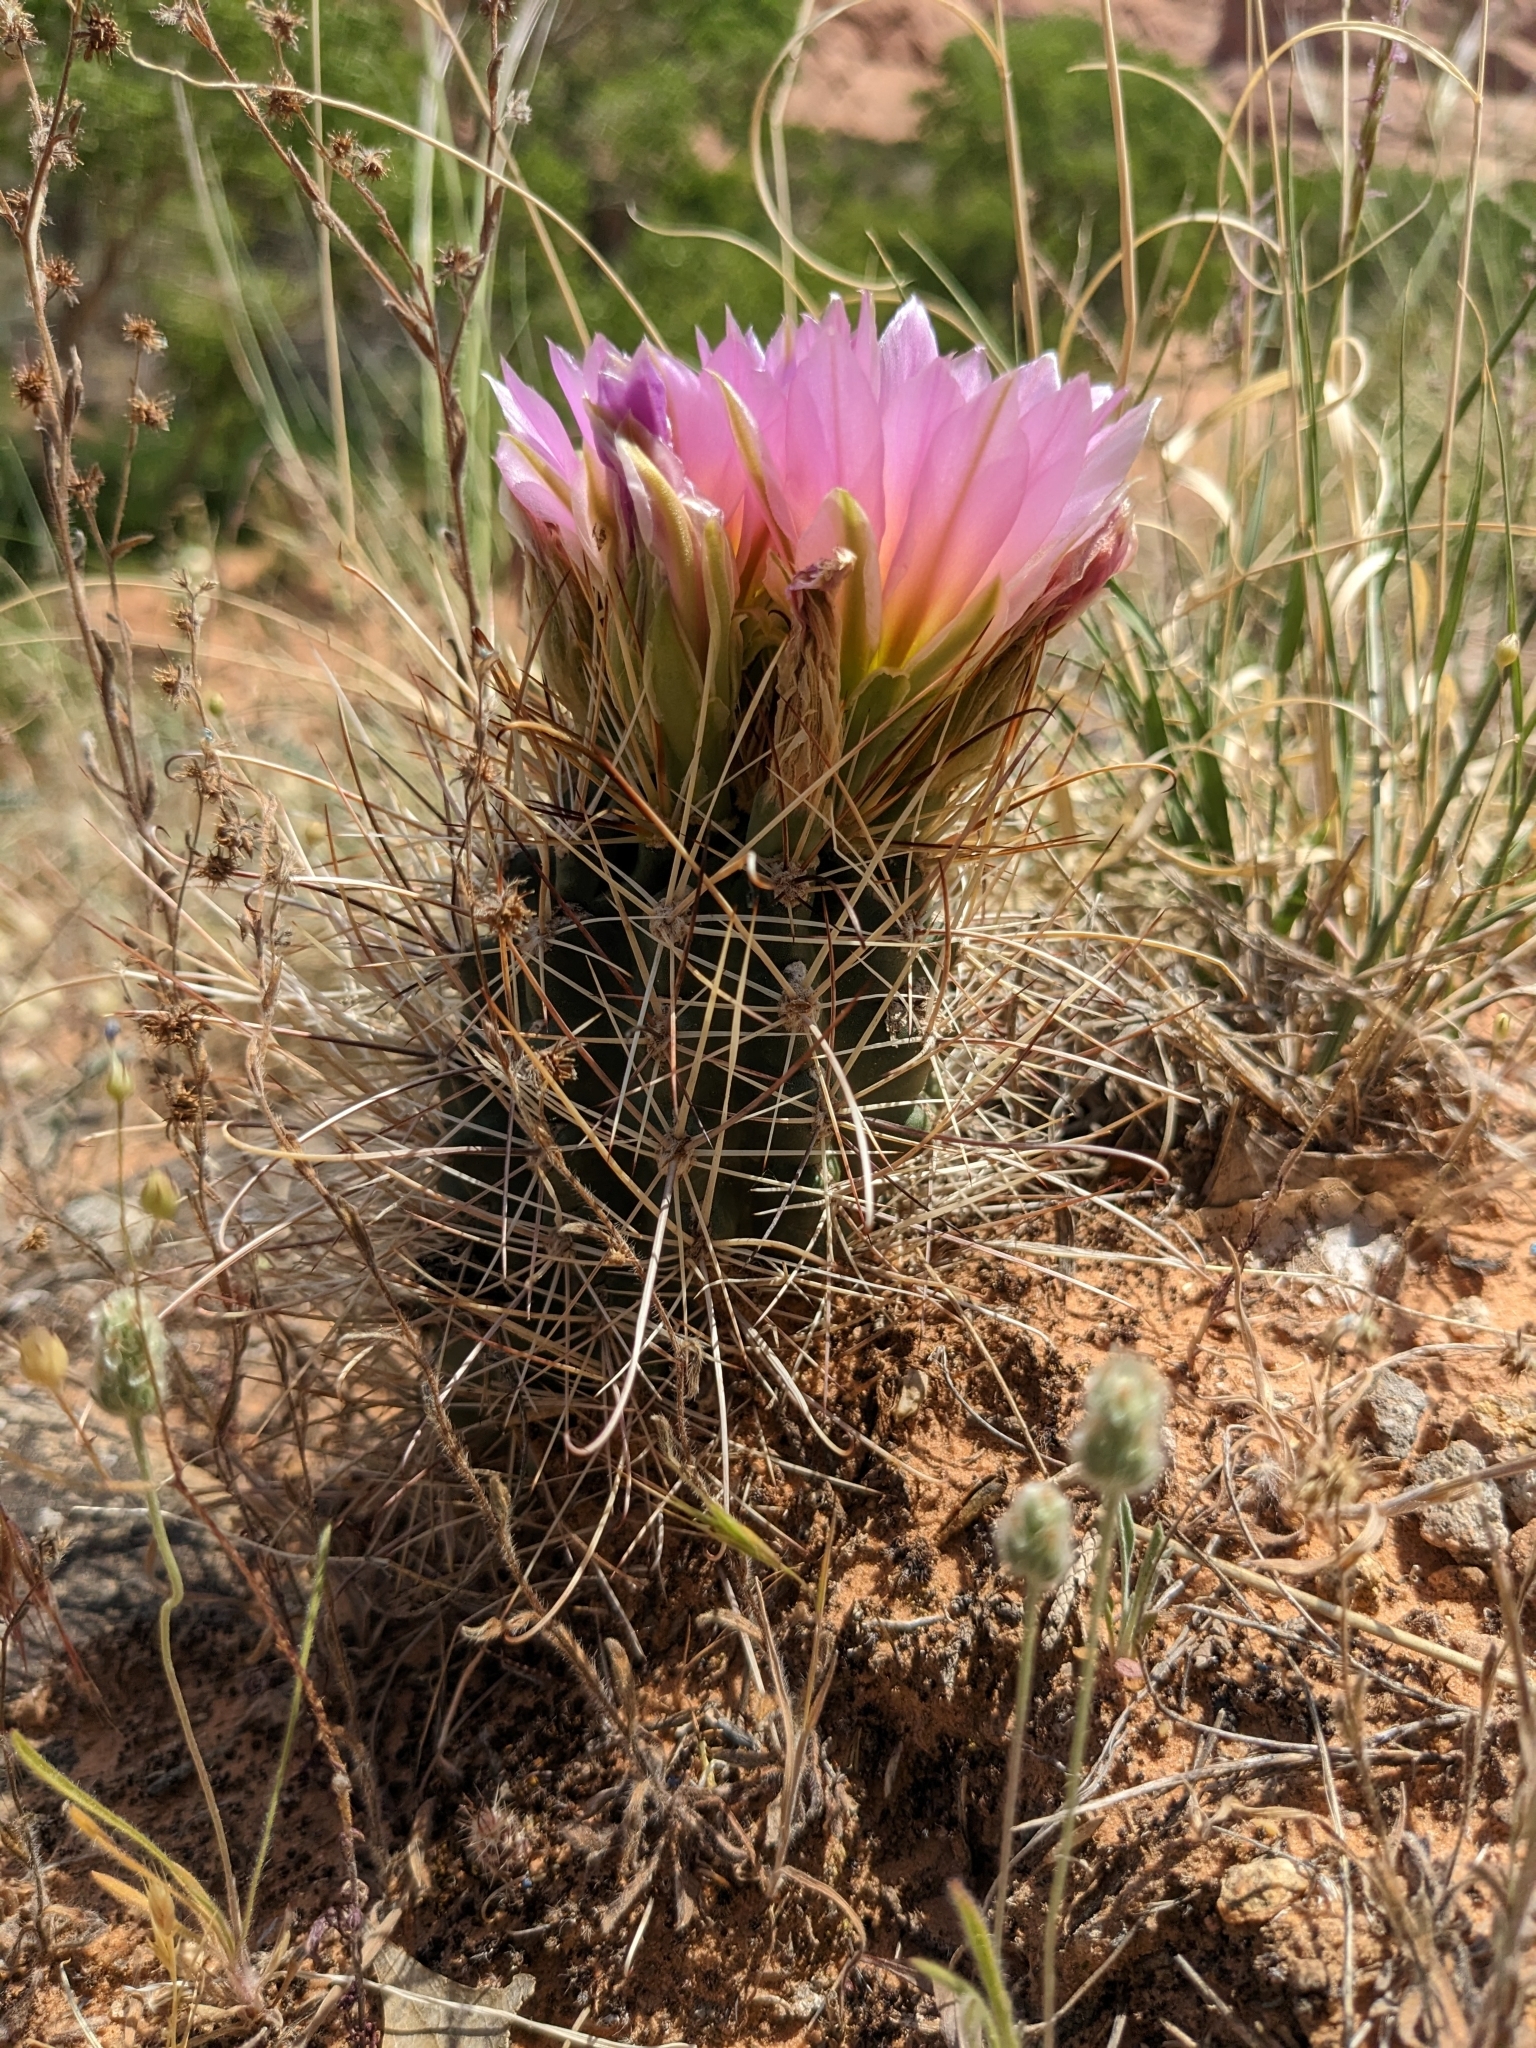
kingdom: Plantae
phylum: Tracheophyta
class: Magnoliopsida
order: Caryophyllales
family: Cactaceae
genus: Sclerocactus
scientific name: Sclerocactus parviflorus
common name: Small-flower fishhook cactus
